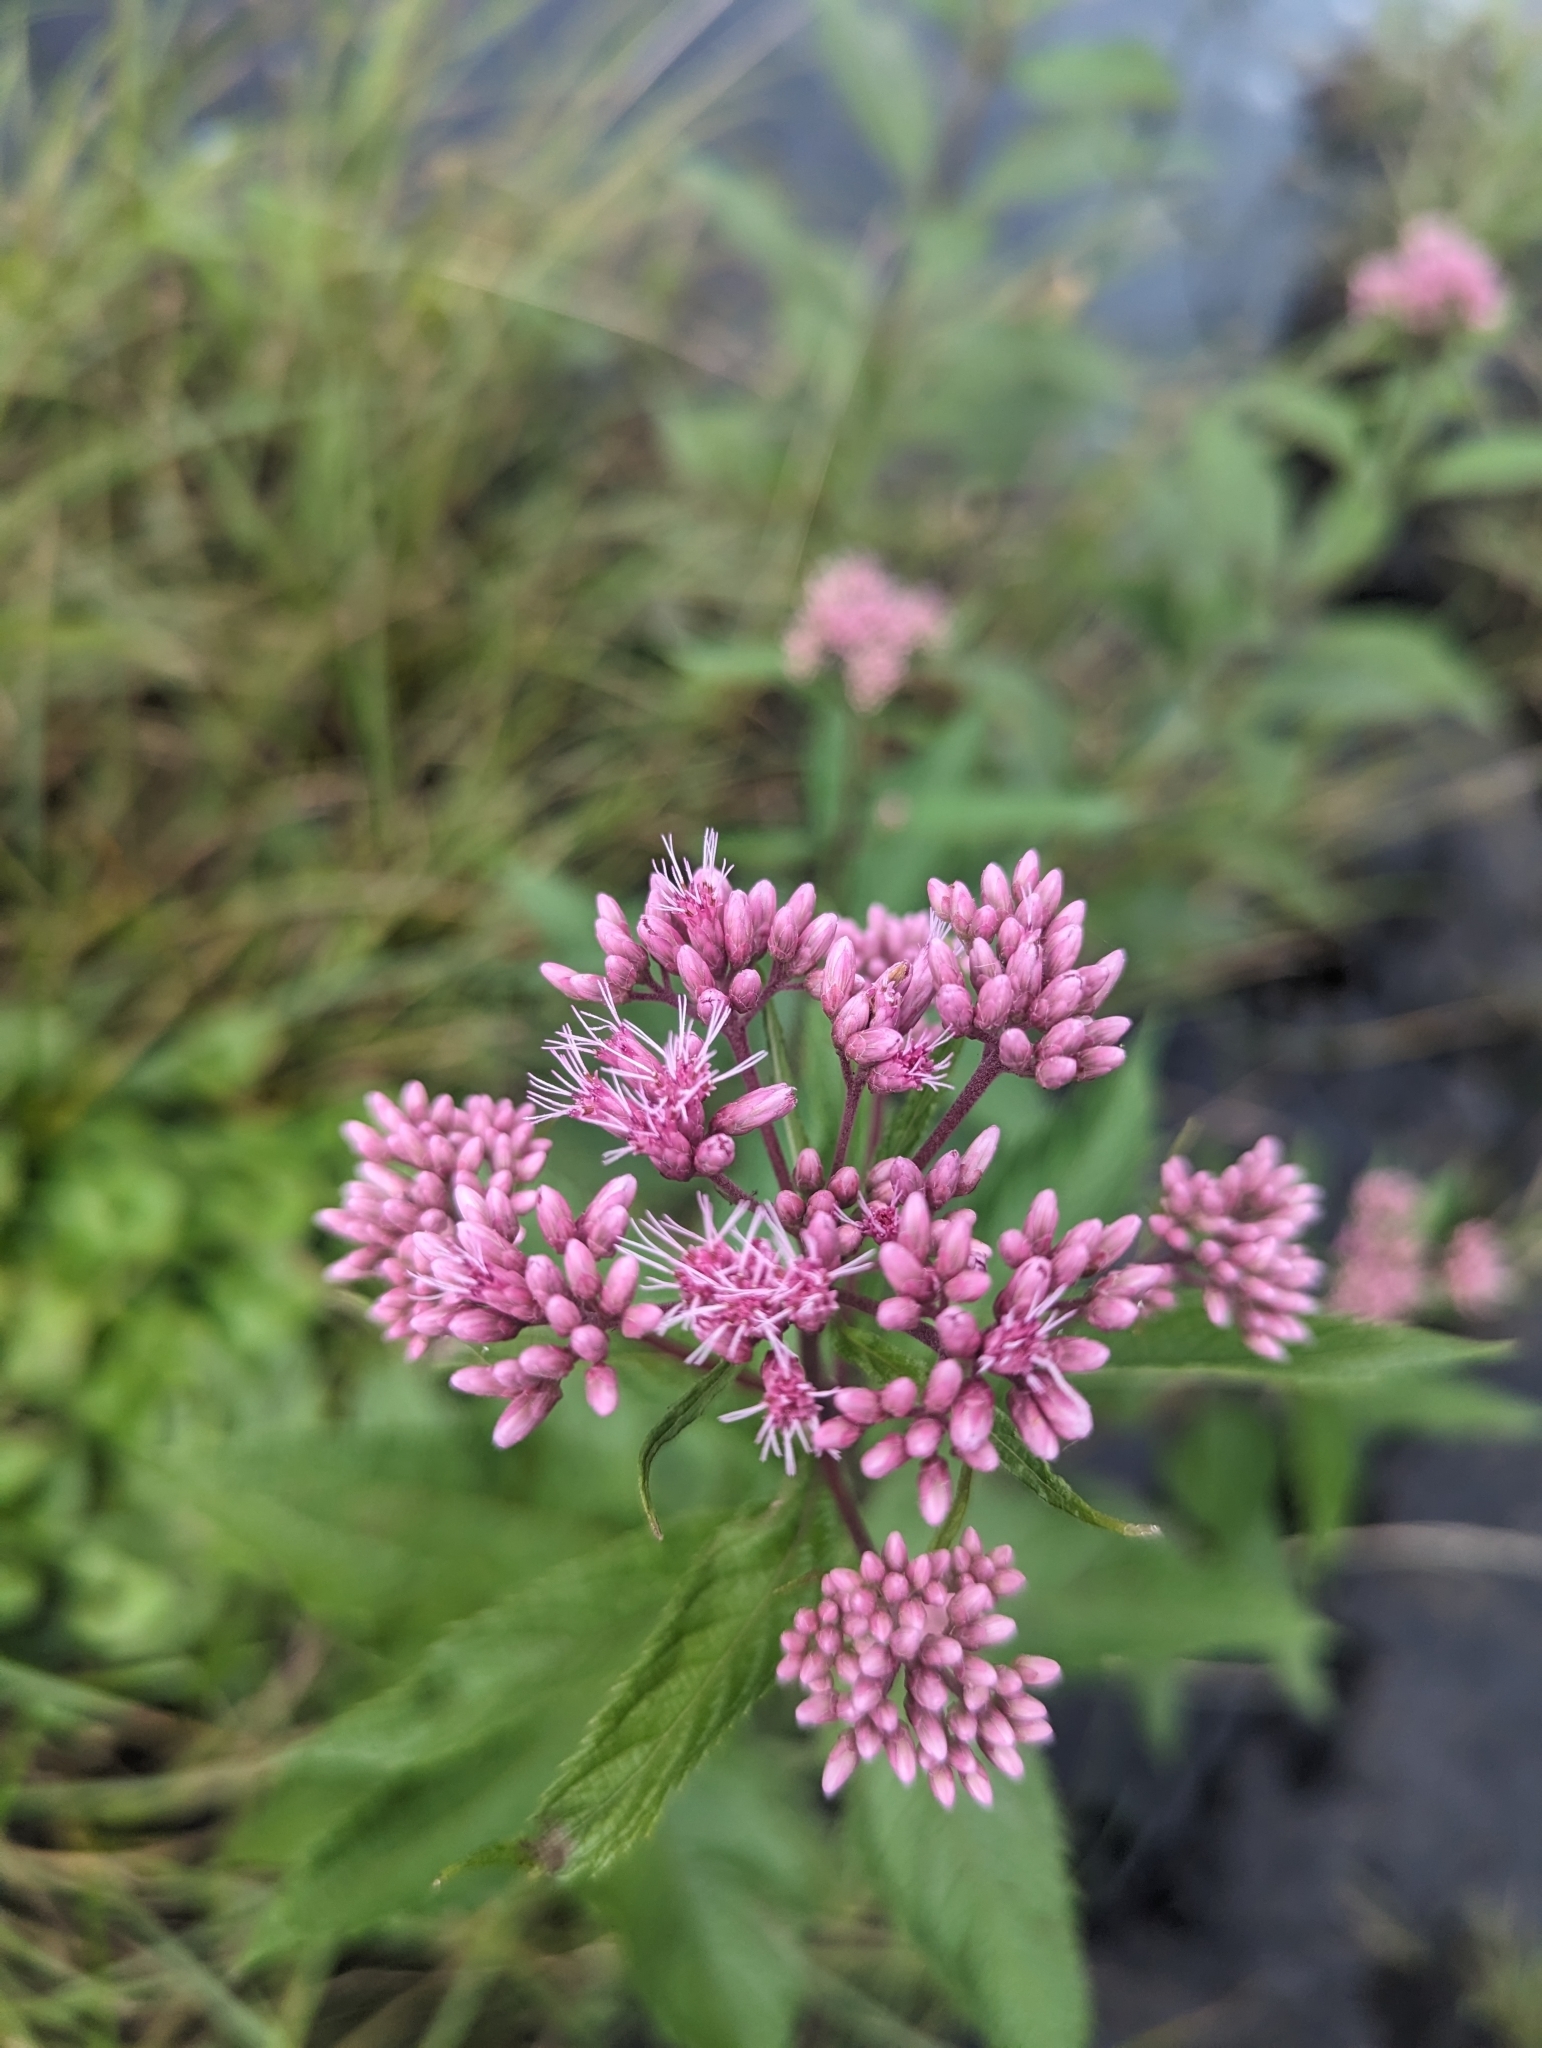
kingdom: Plantae
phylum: Tracheophyta
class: Magnoliopsida
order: Asterales
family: Asteraceae
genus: Eutrochium
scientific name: Eutrochium maculatum
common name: Spotted joe pye weed
